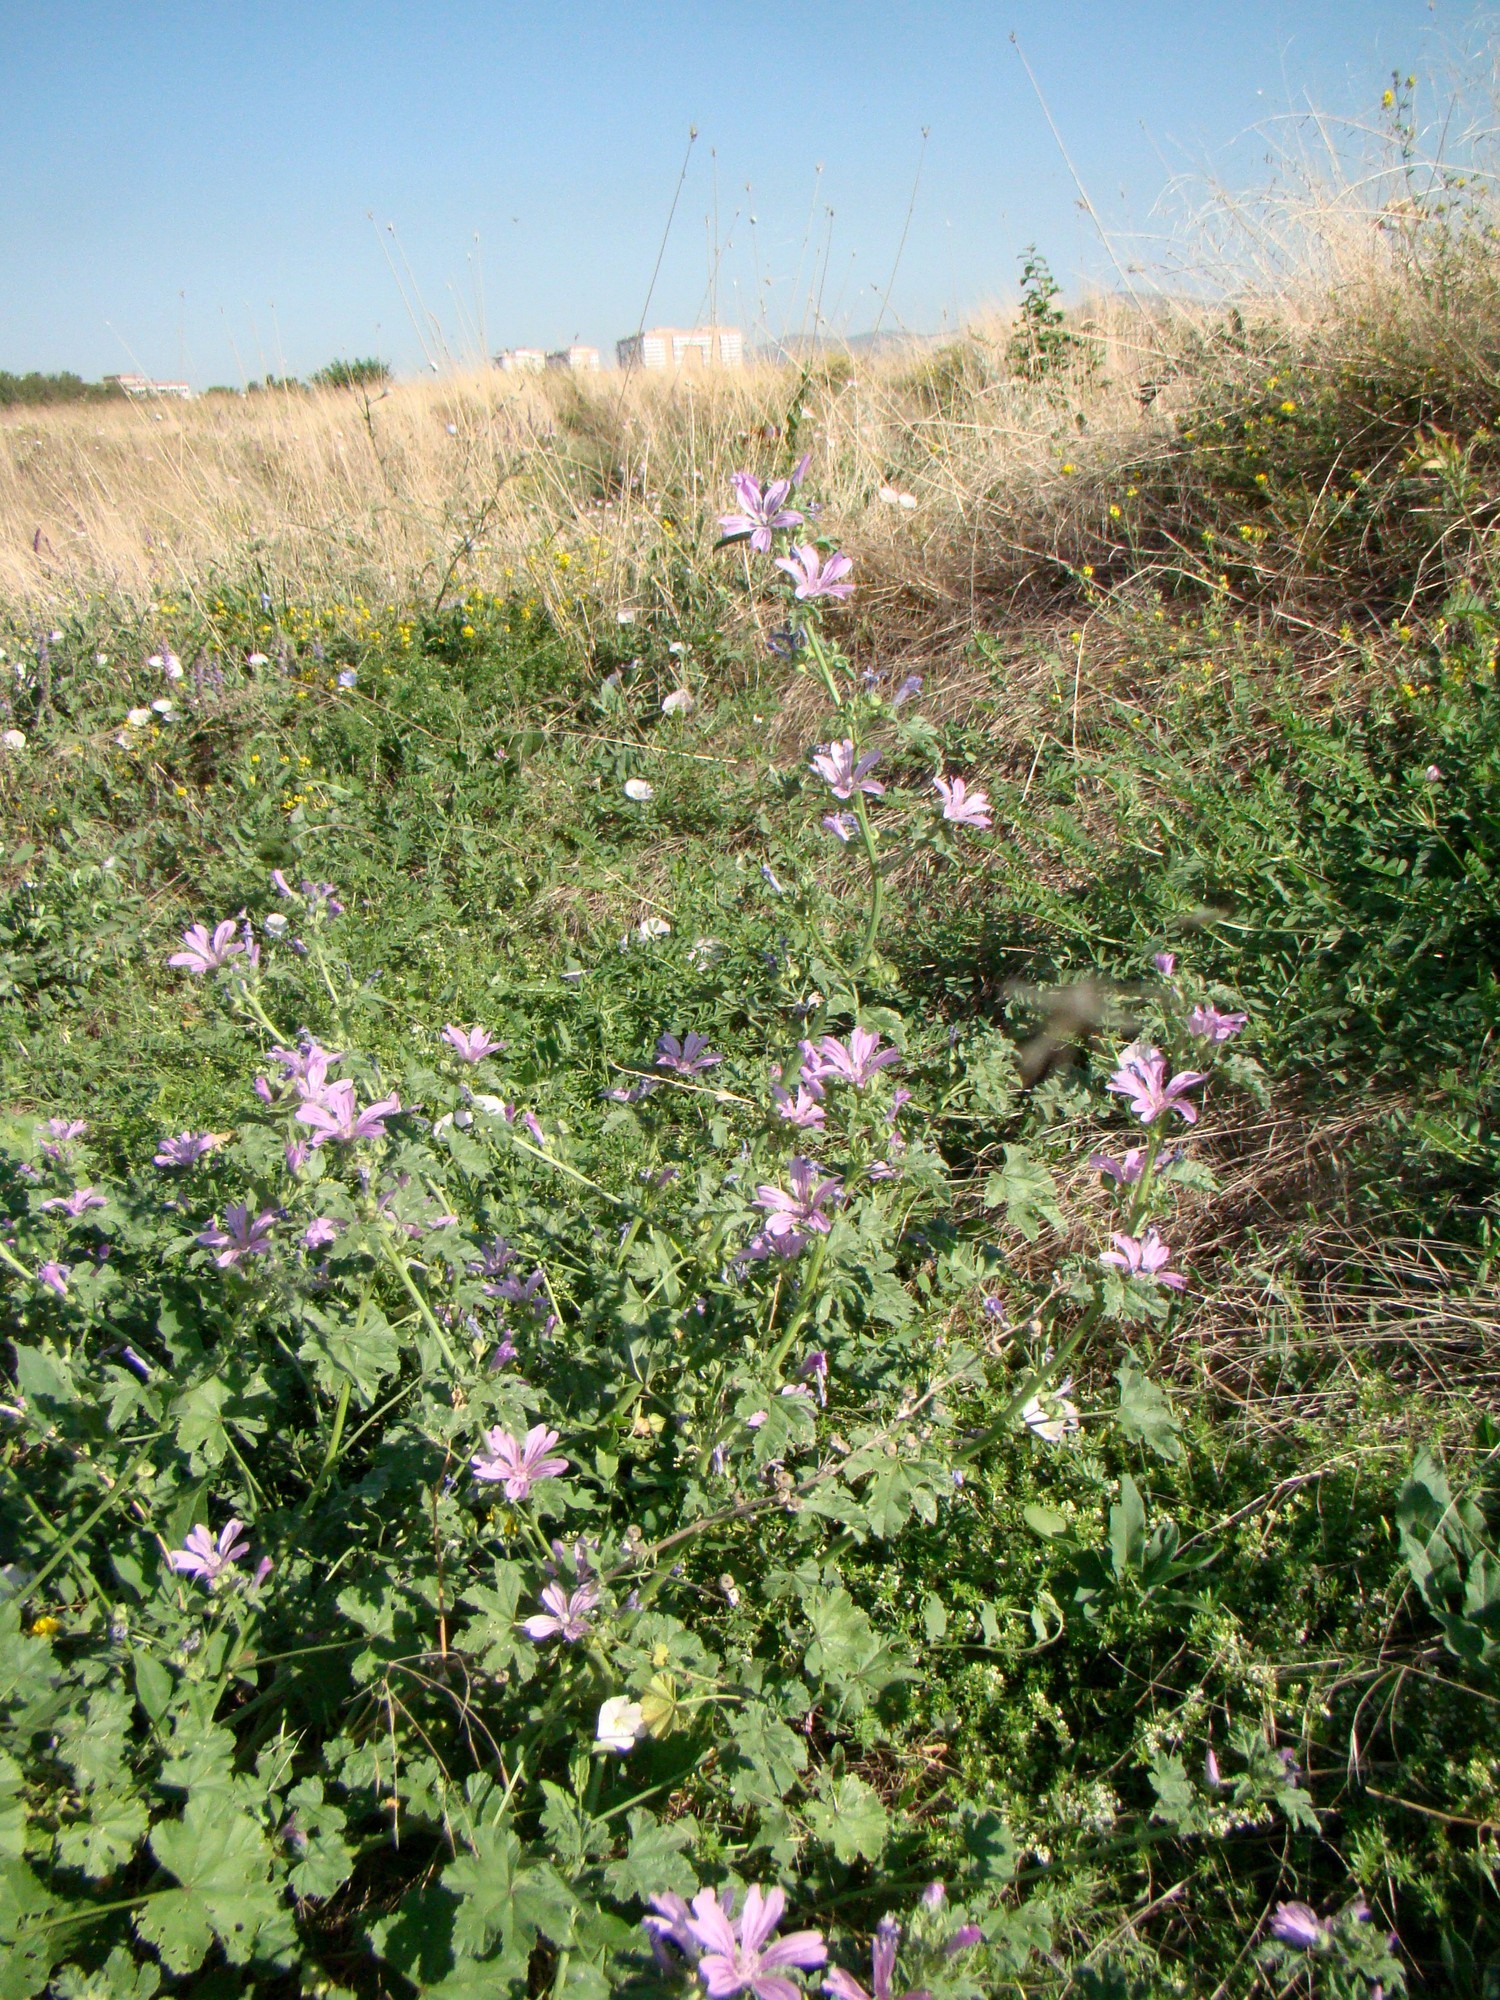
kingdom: Plantae
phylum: Tracheophyta
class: Magnoliopsida
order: Malvales
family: Malvaceae
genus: Malva
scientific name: Malva sylvestris
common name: Common mallow
